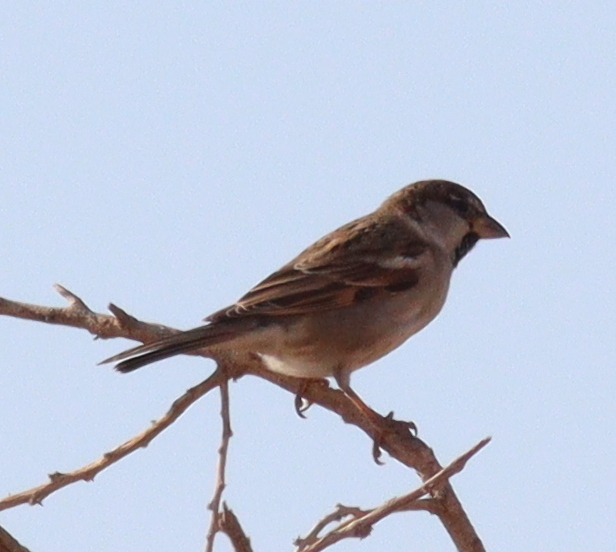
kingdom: Animalia
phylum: Chordata
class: Aves
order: Passeriformes
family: Passeridae
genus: Passer
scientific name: Passer domesticus
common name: House sparrow
